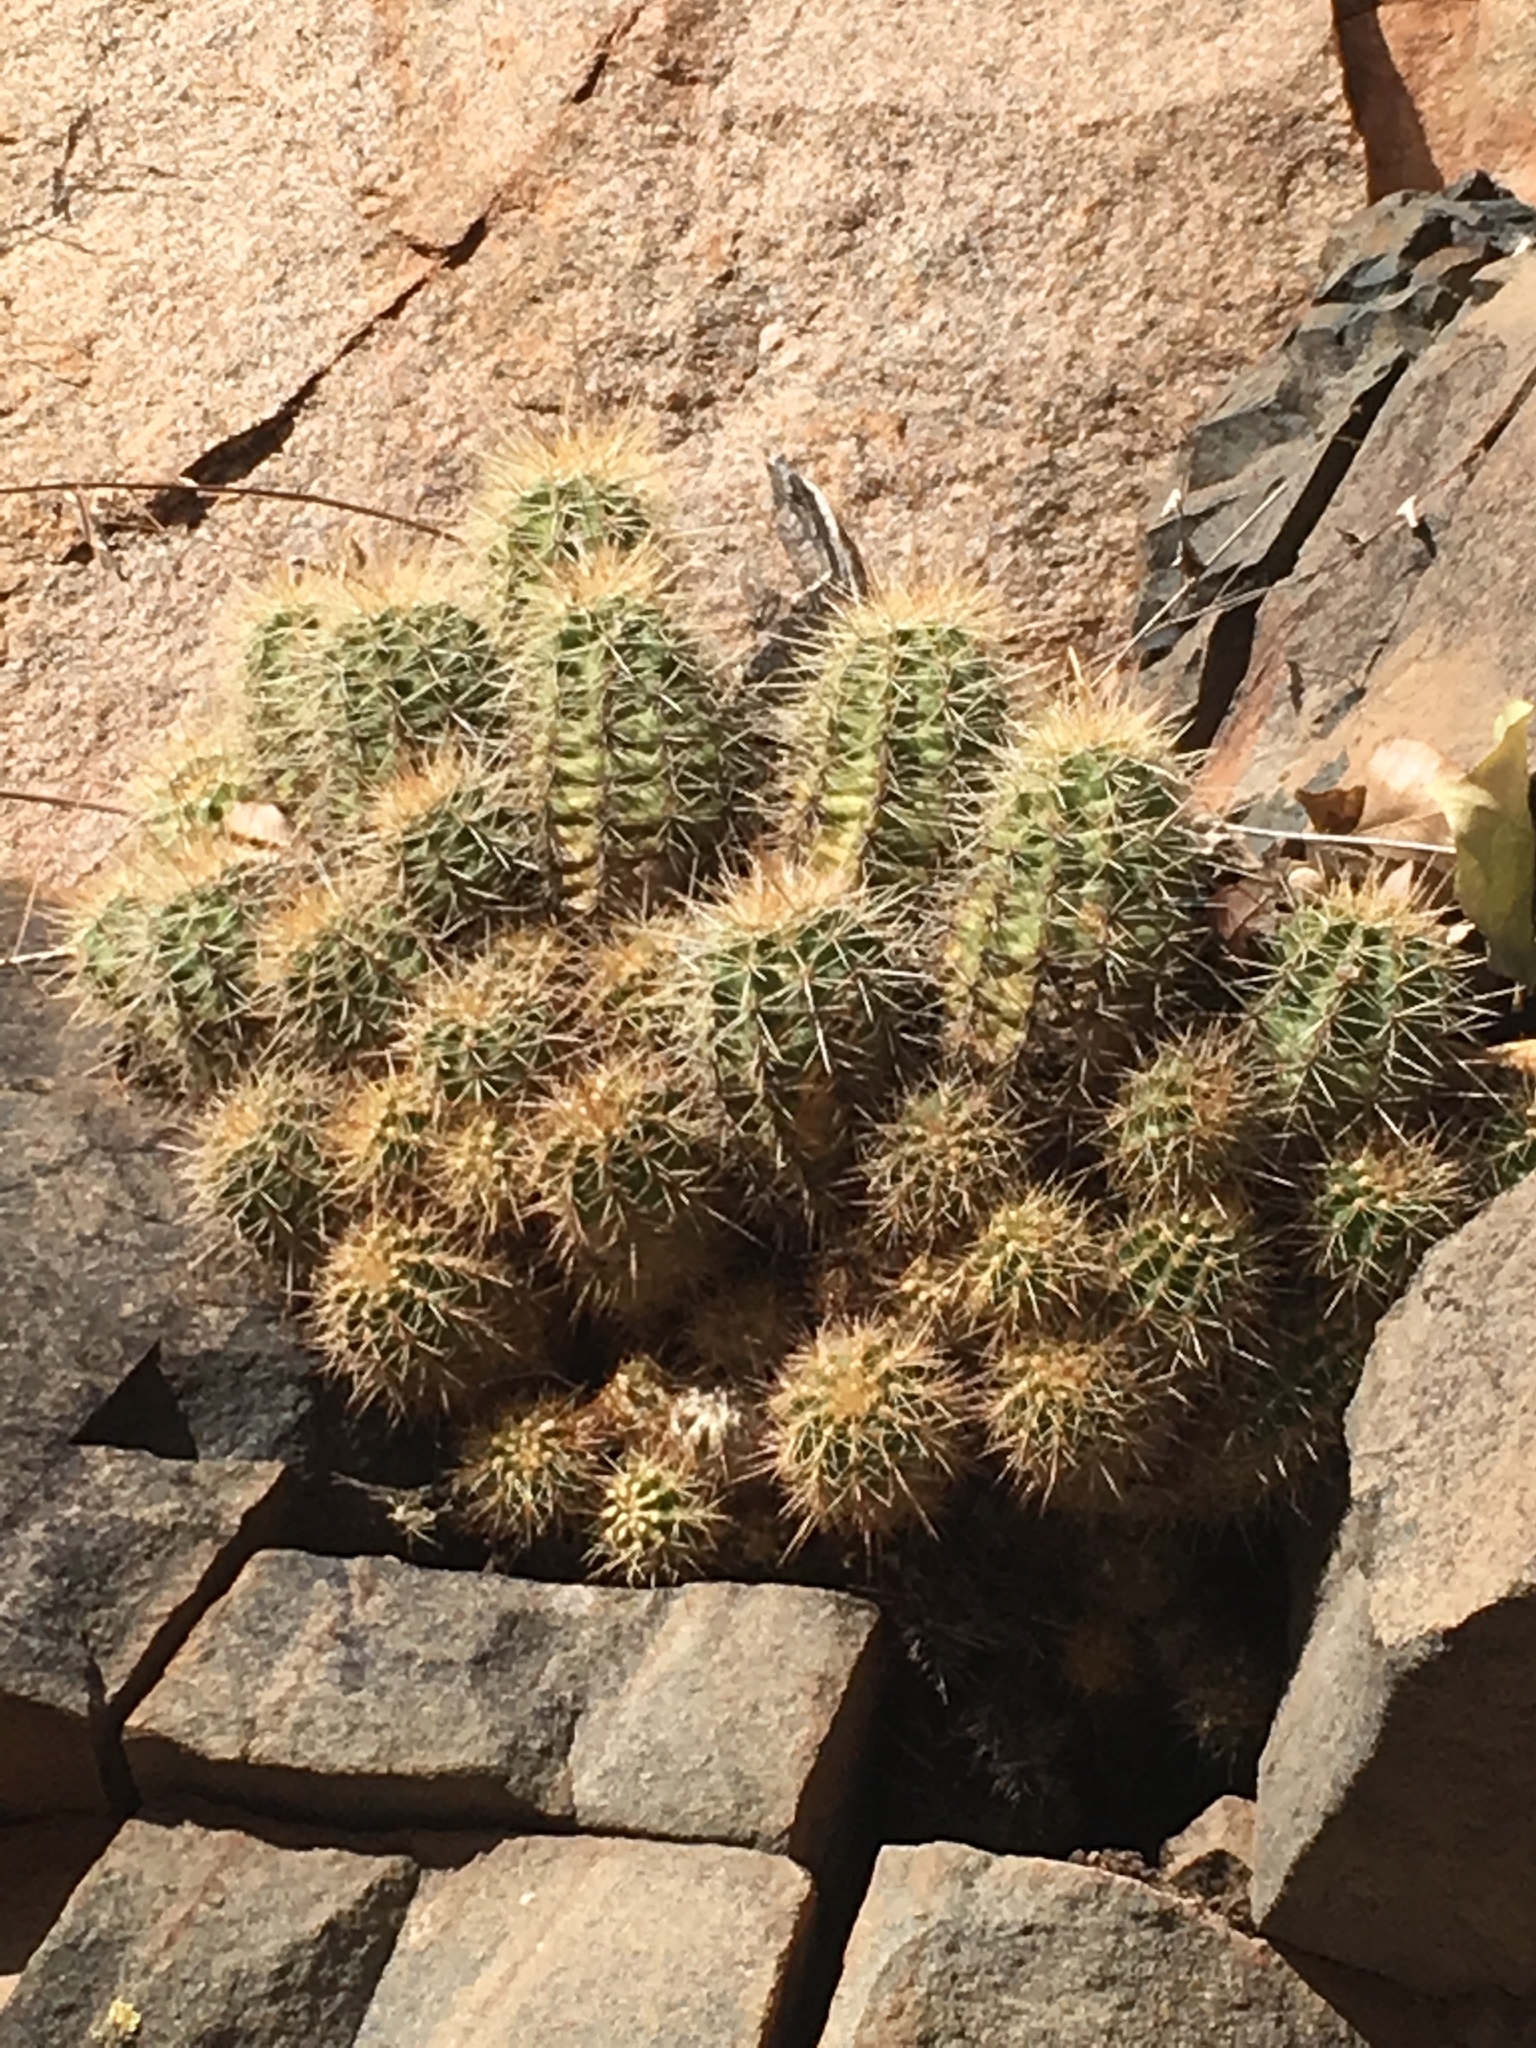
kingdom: Plantae
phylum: Tracheophyta
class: Magnoliopsida
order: Caryophyllales
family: Cactaceae
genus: Echinocereus
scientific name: Echinocereus bakeri
